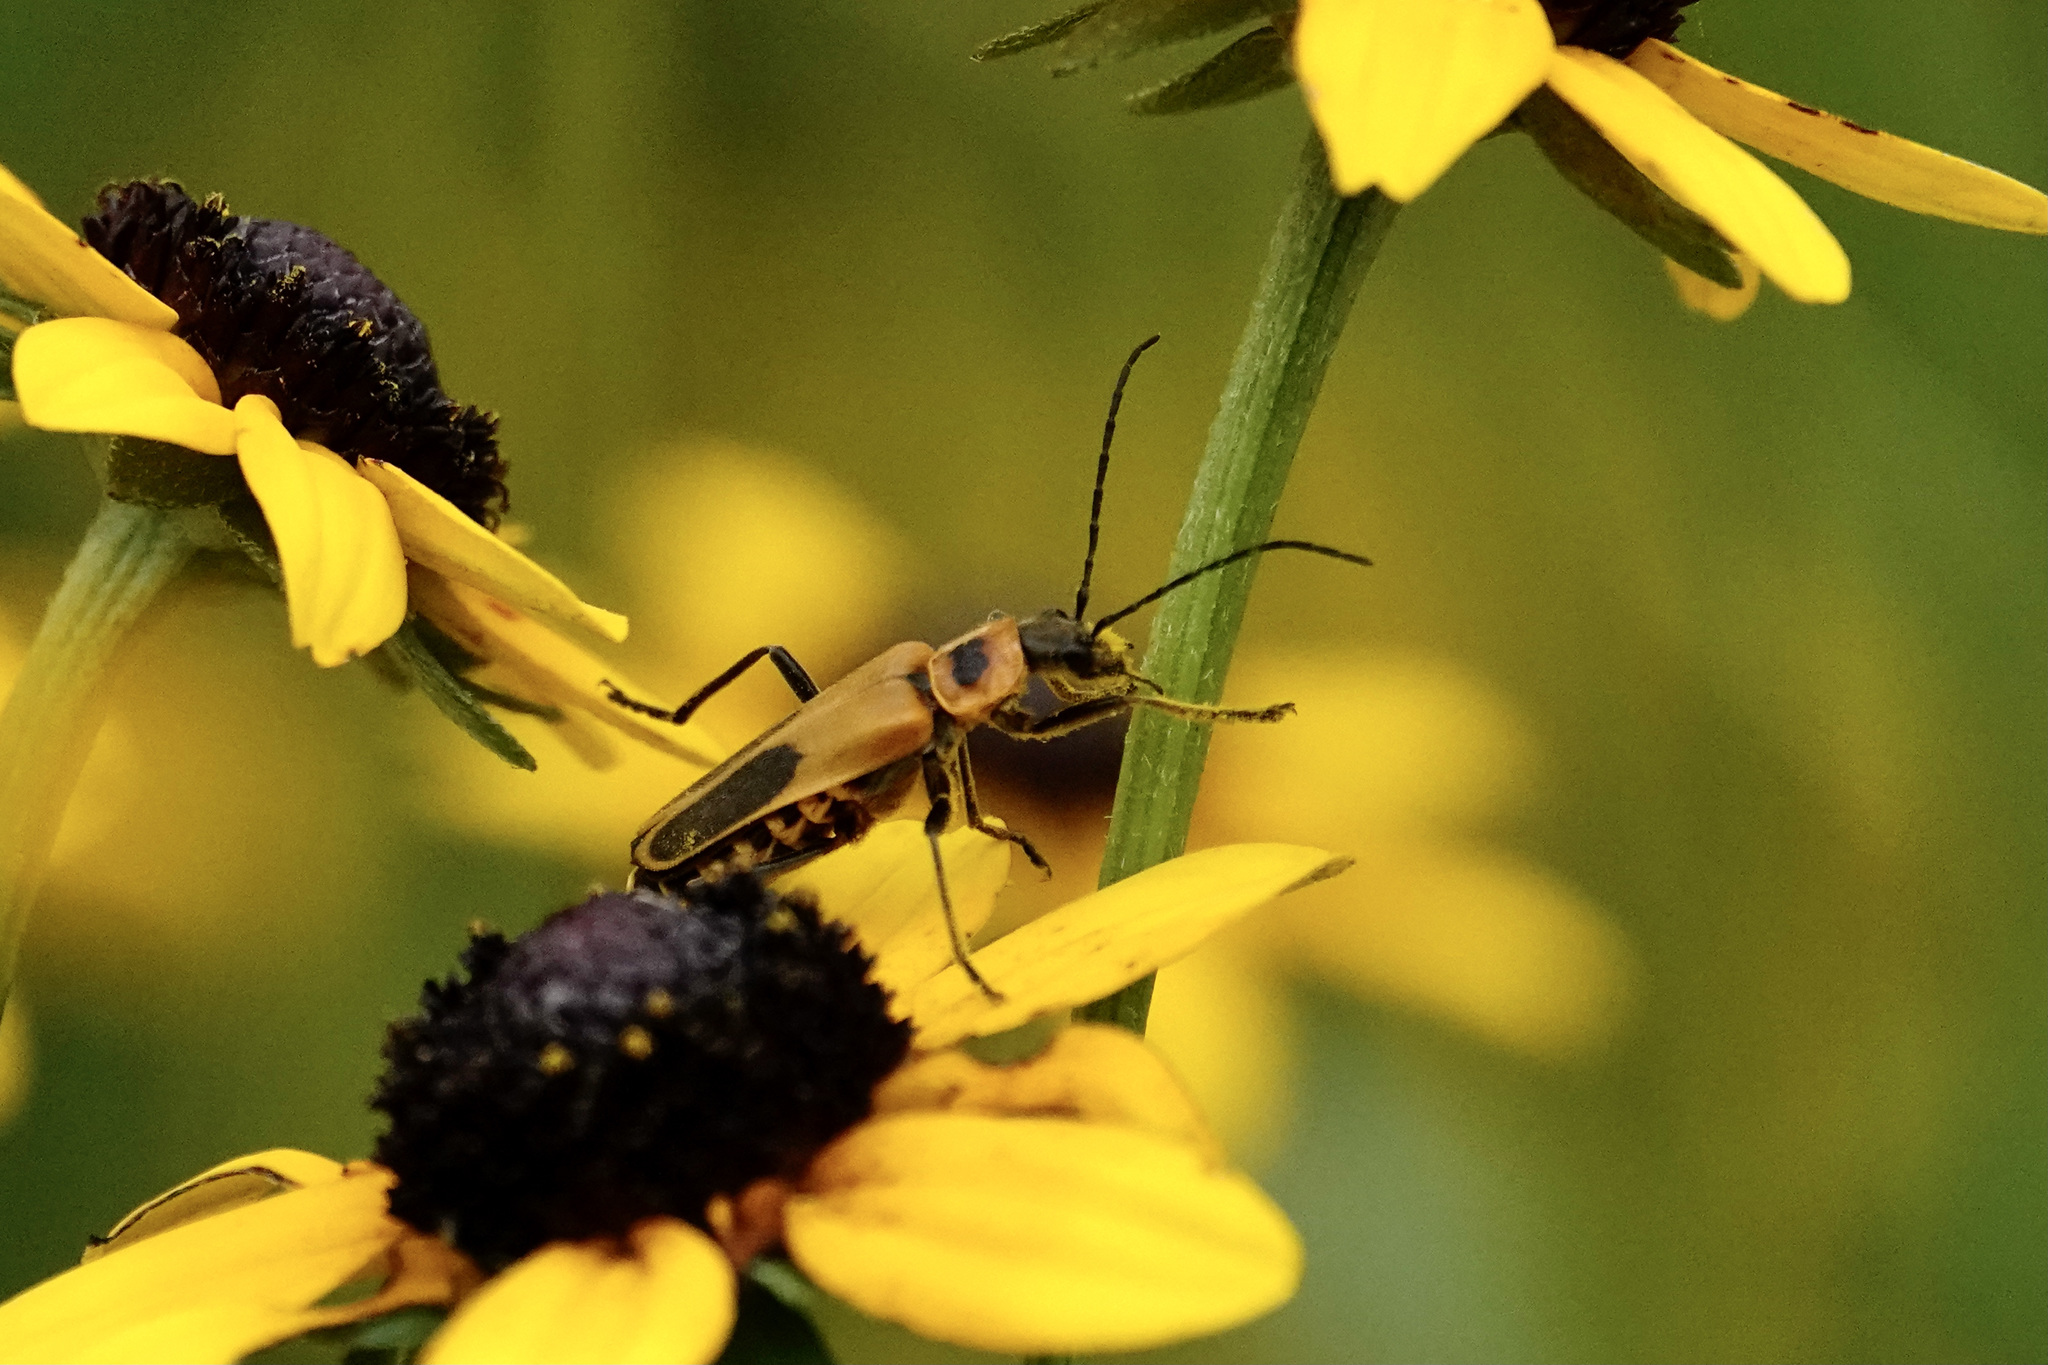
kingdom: Animalia
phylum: Arthropoda
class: Insecta
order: Coleoptera
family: Cantharidae
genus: Chauliognathus
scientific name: Chauliognathus pensylvanicus
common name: Goldenrod soldier beetle
